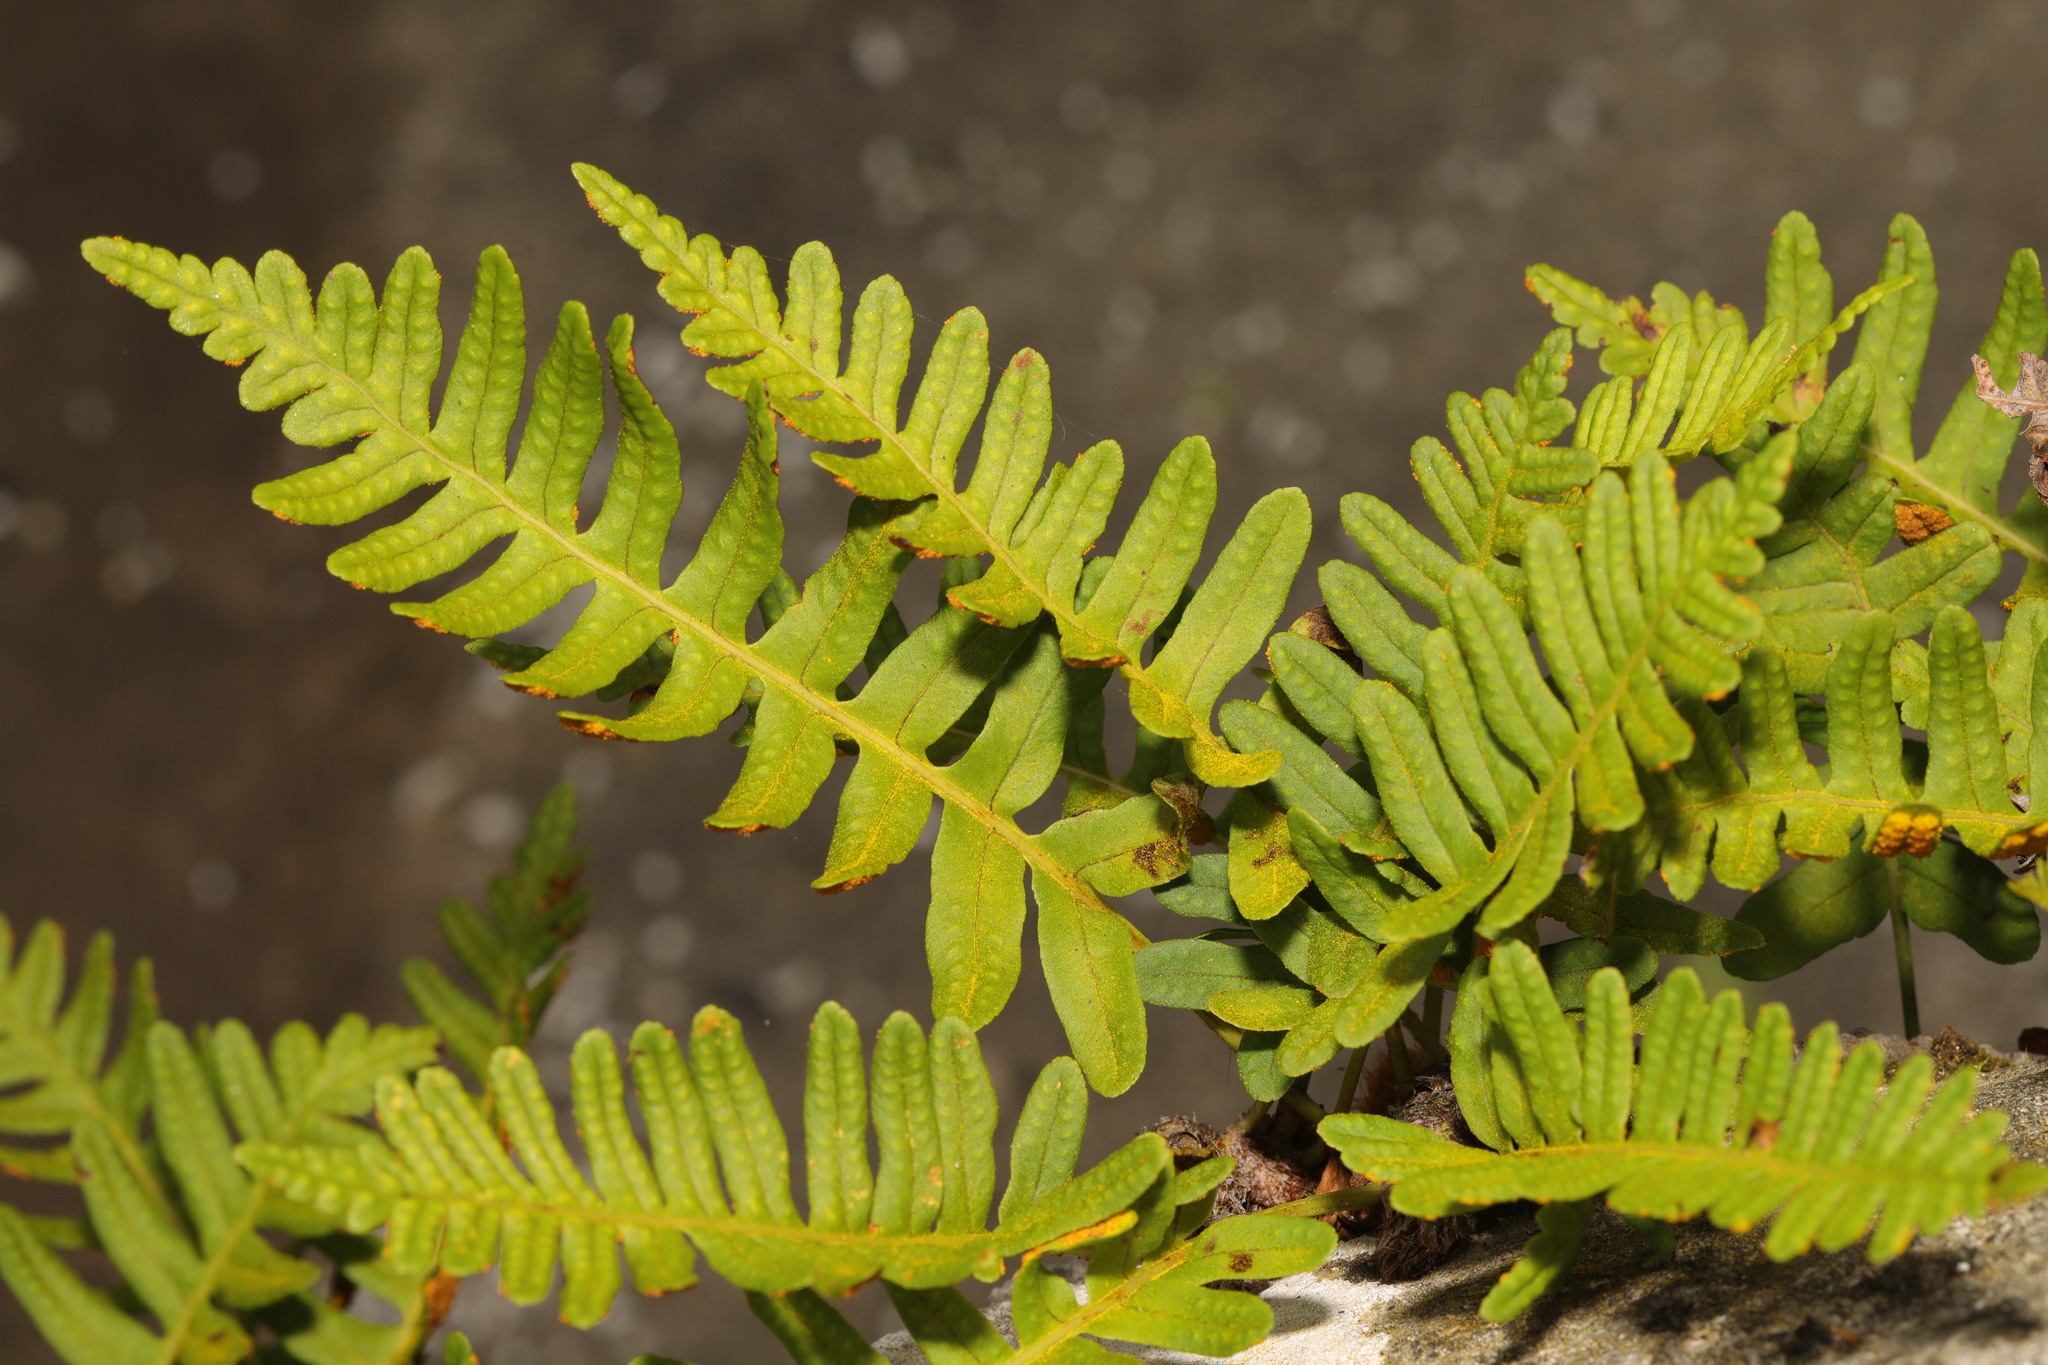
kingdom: Plantae
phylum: Tracheophyta
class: Polypodiopsida
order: Polypodiales
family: Polypodiaceae
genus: Polypodium
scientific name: Polypodium vulgare
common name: Common polypody
